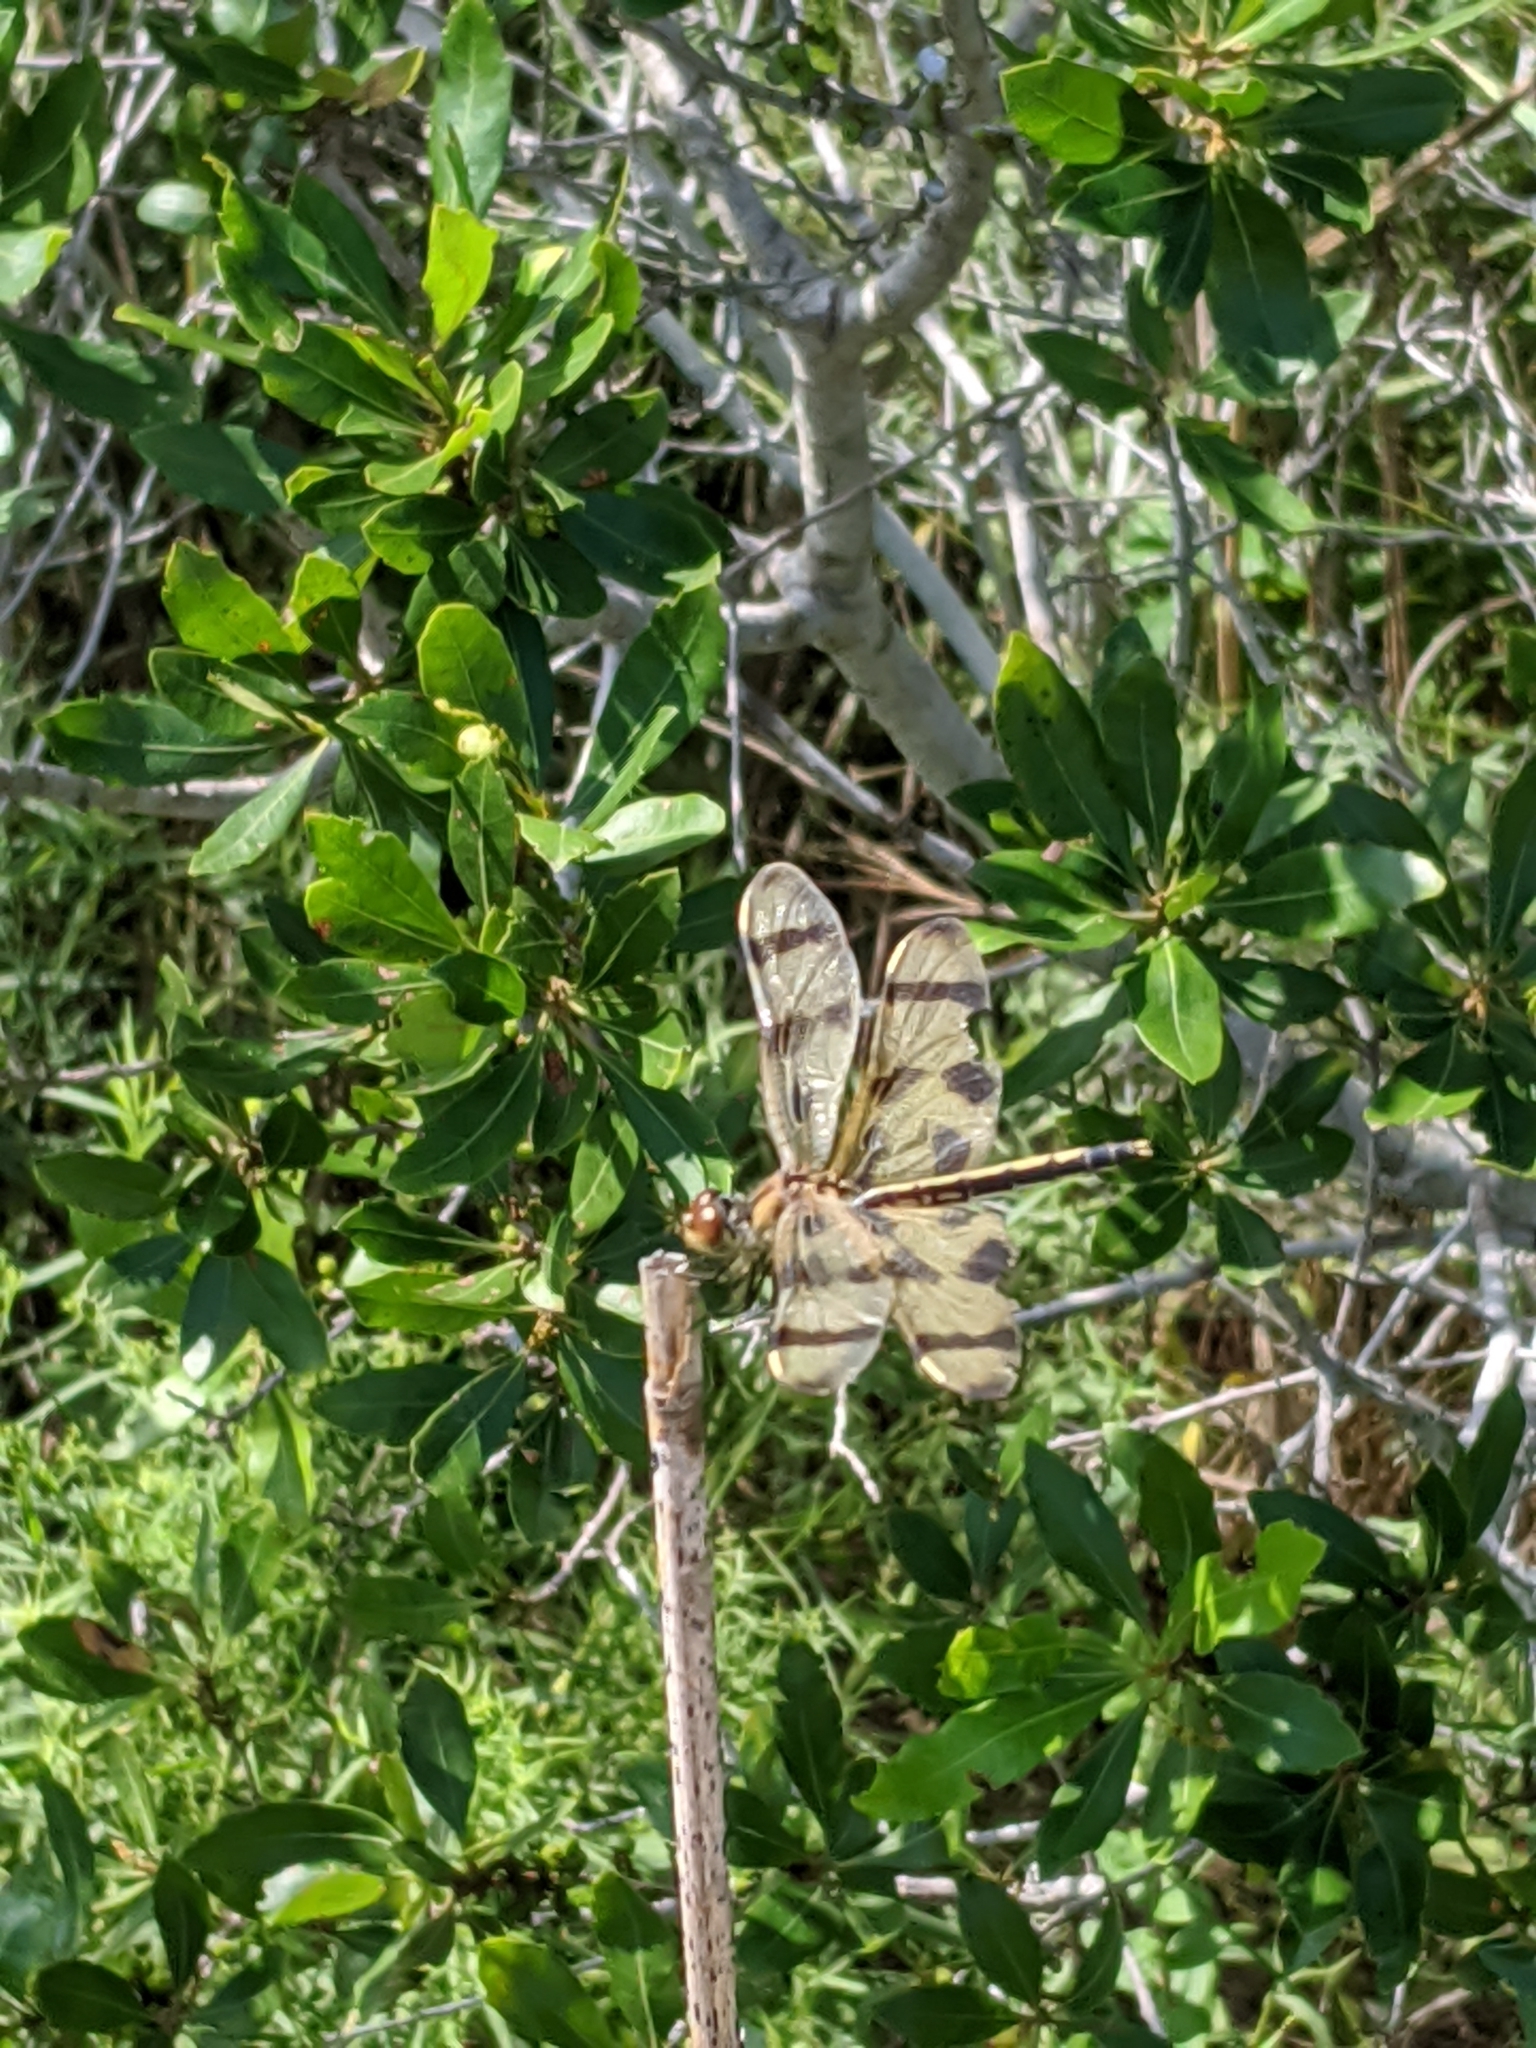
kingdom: Animalia
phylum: Arthropoda
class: Insecta
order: Odonata
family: Libellulidae
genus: Celithemis
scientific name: Celithemis eponina
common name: Halloween pennant
